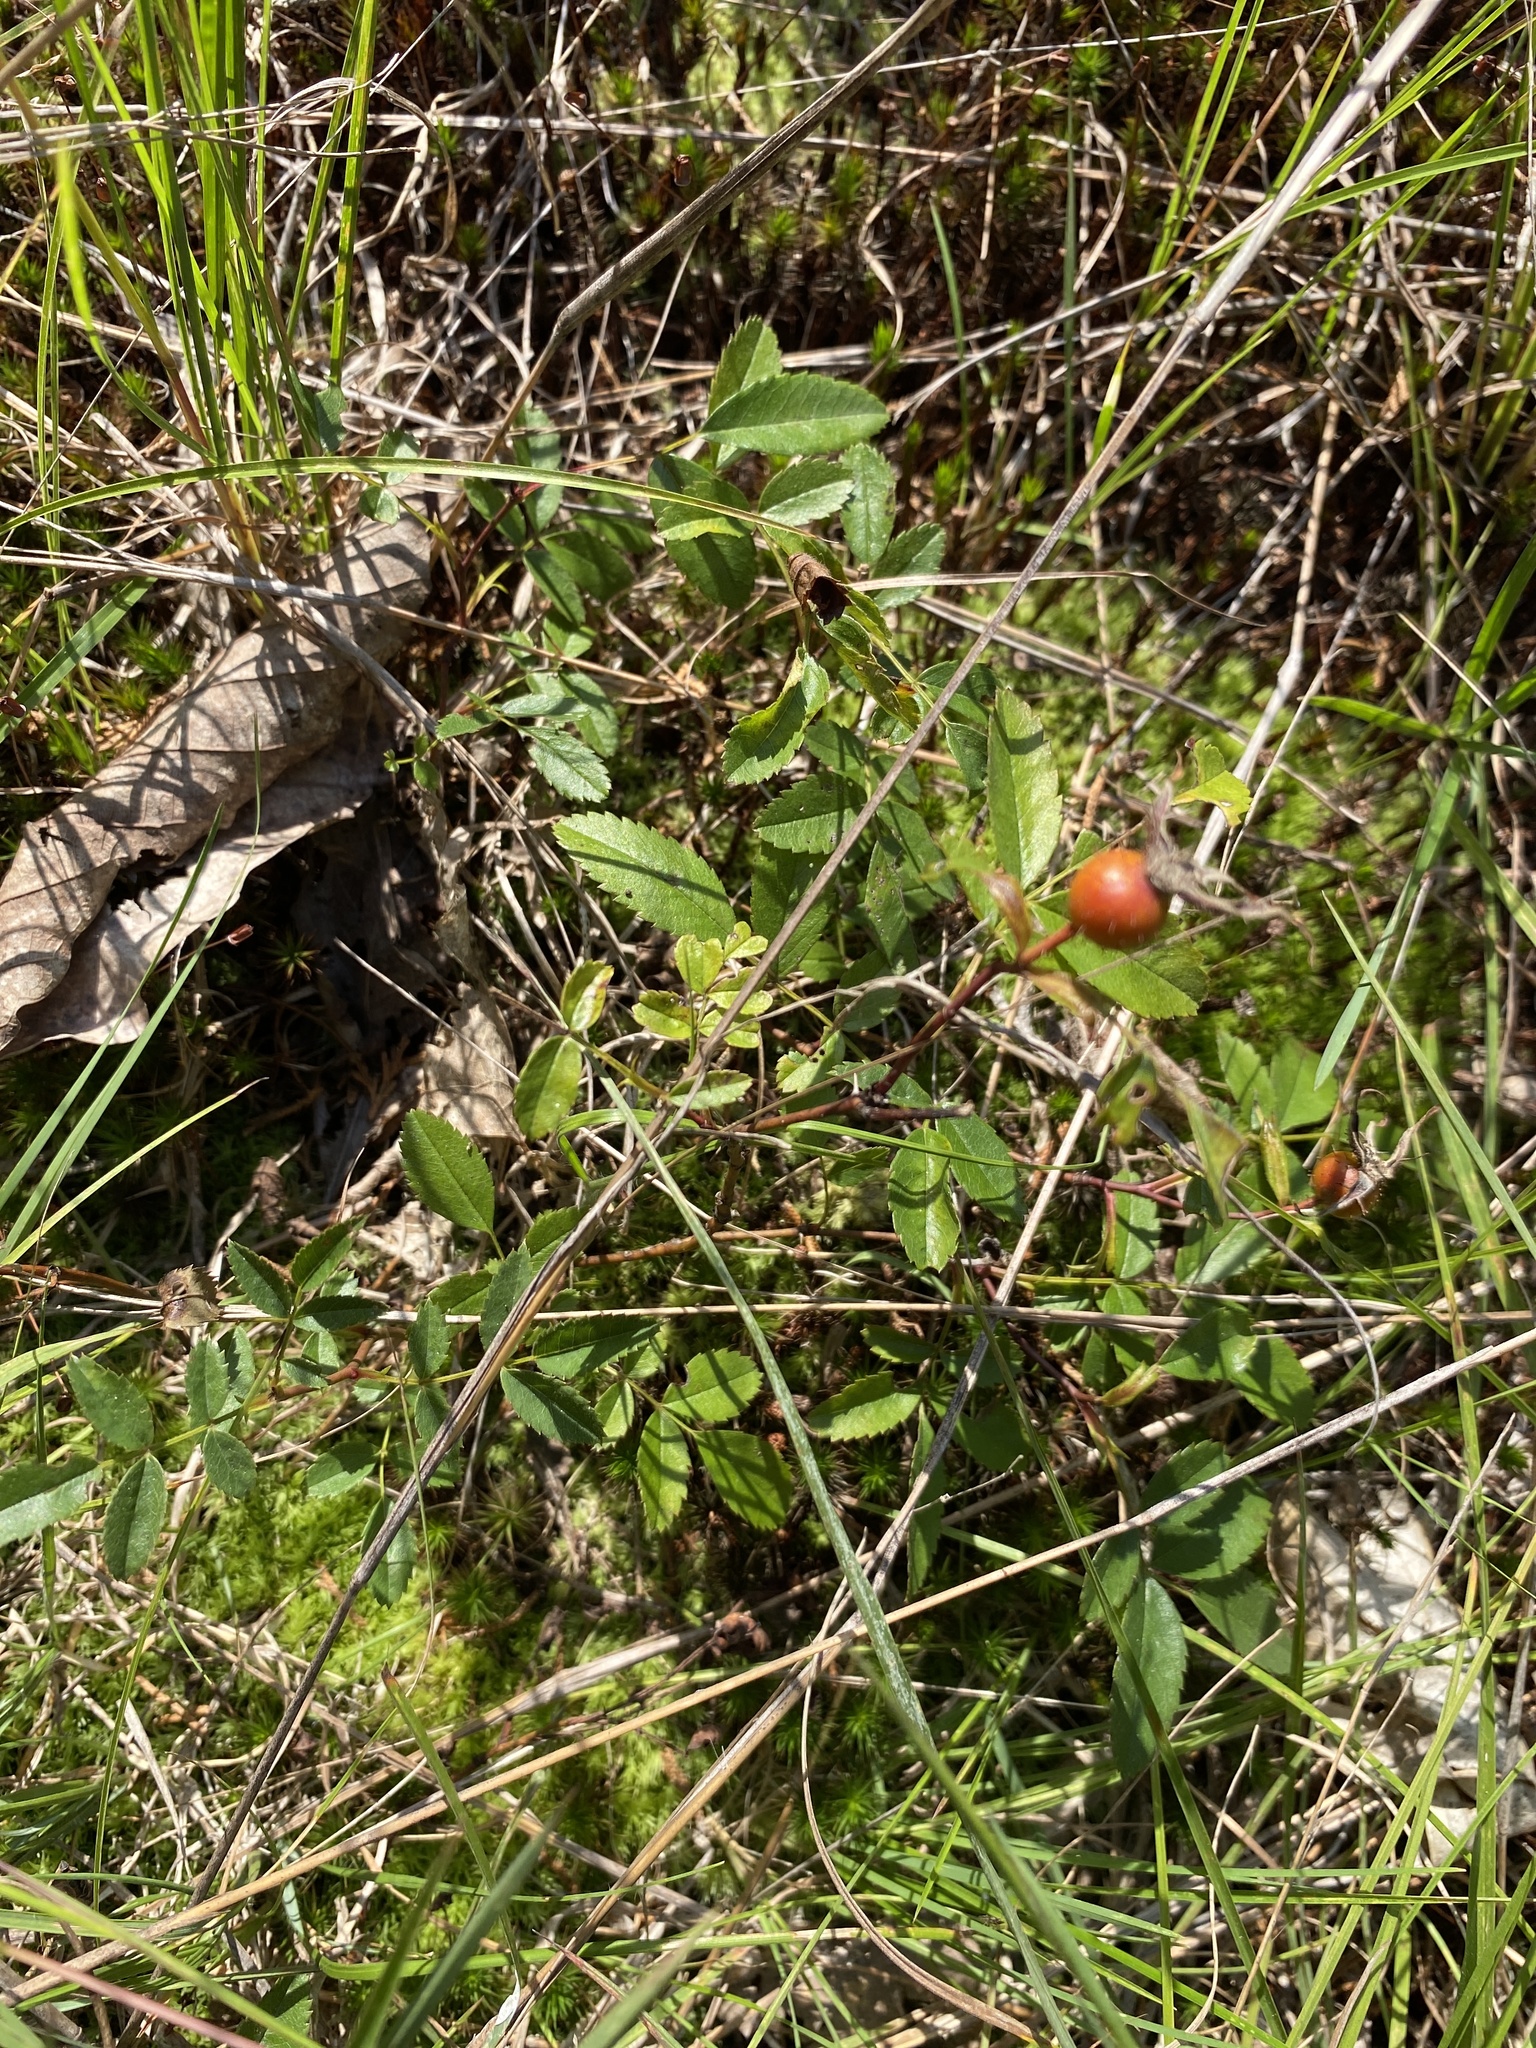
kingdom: Plantae
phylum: Tracheophyta
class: Magnoliopsida
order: Rosales
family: Rosaceae
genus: Rosa
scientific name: Rosa carolina
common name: Pasture rose
